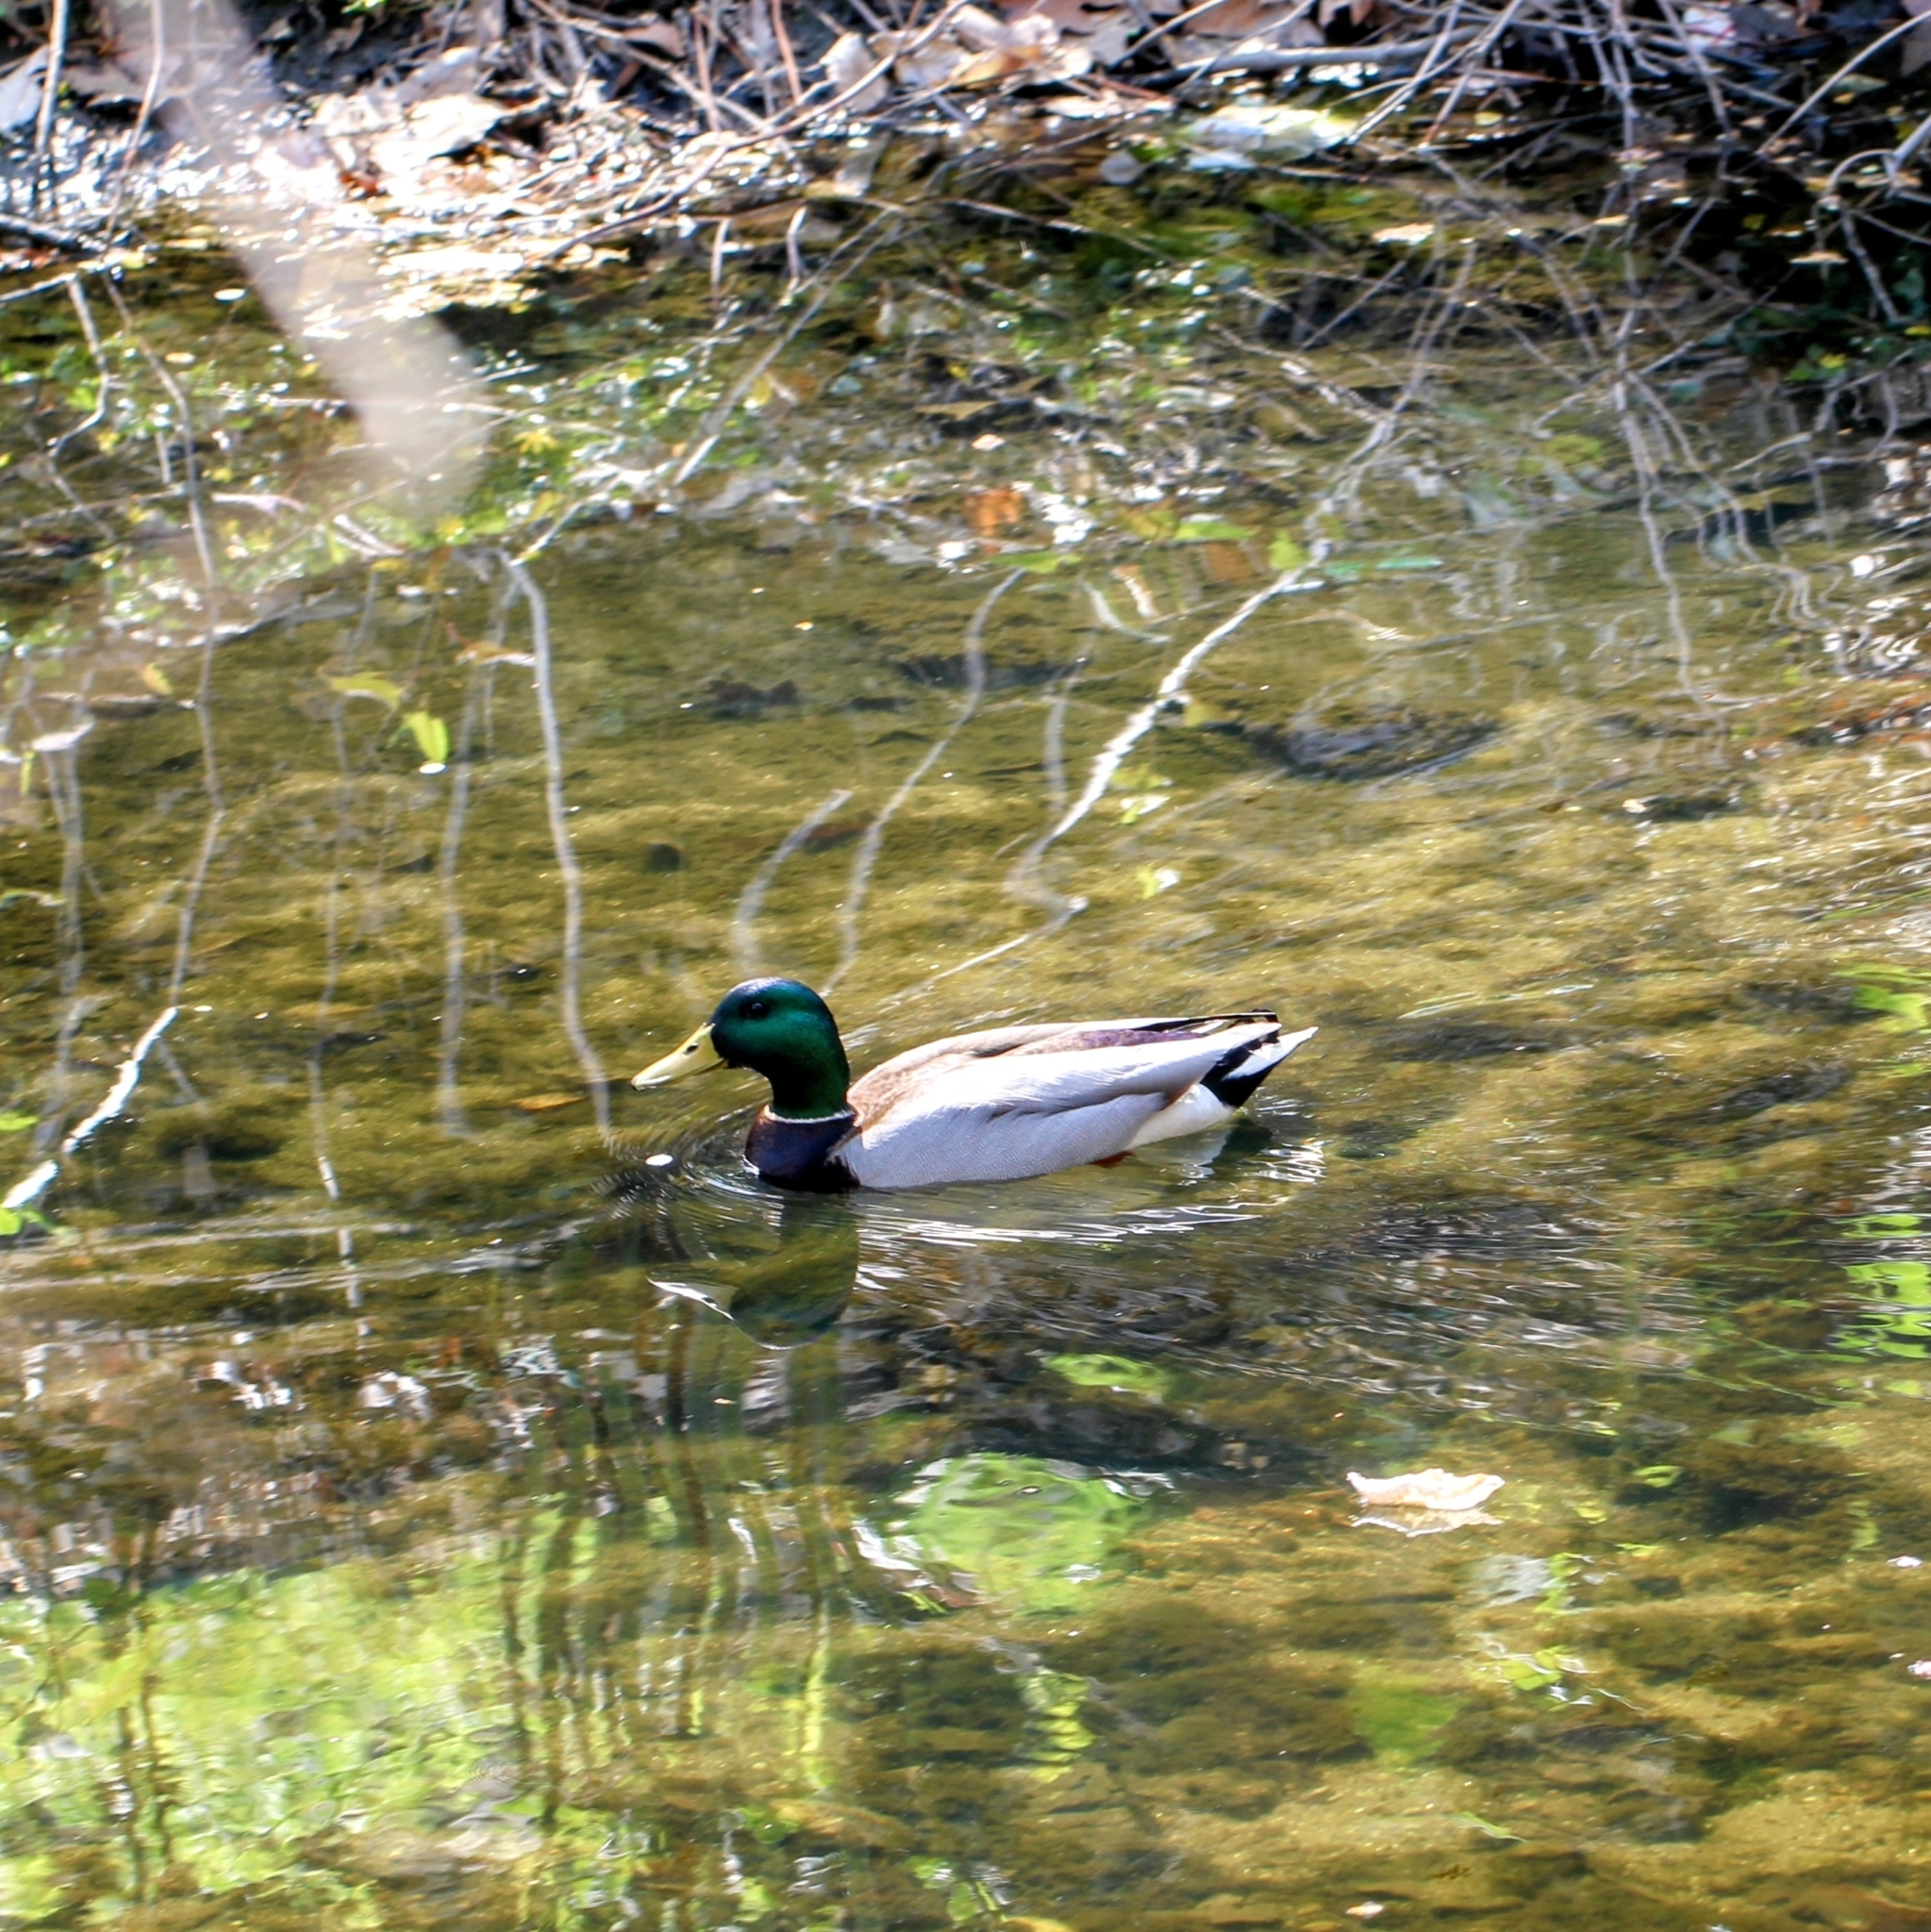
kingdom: Animalia
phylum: Chordata
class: Aves
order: Anseriformes
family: Anatidae
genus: Anas
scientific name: Anas platyrhynchos
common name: Mallard
